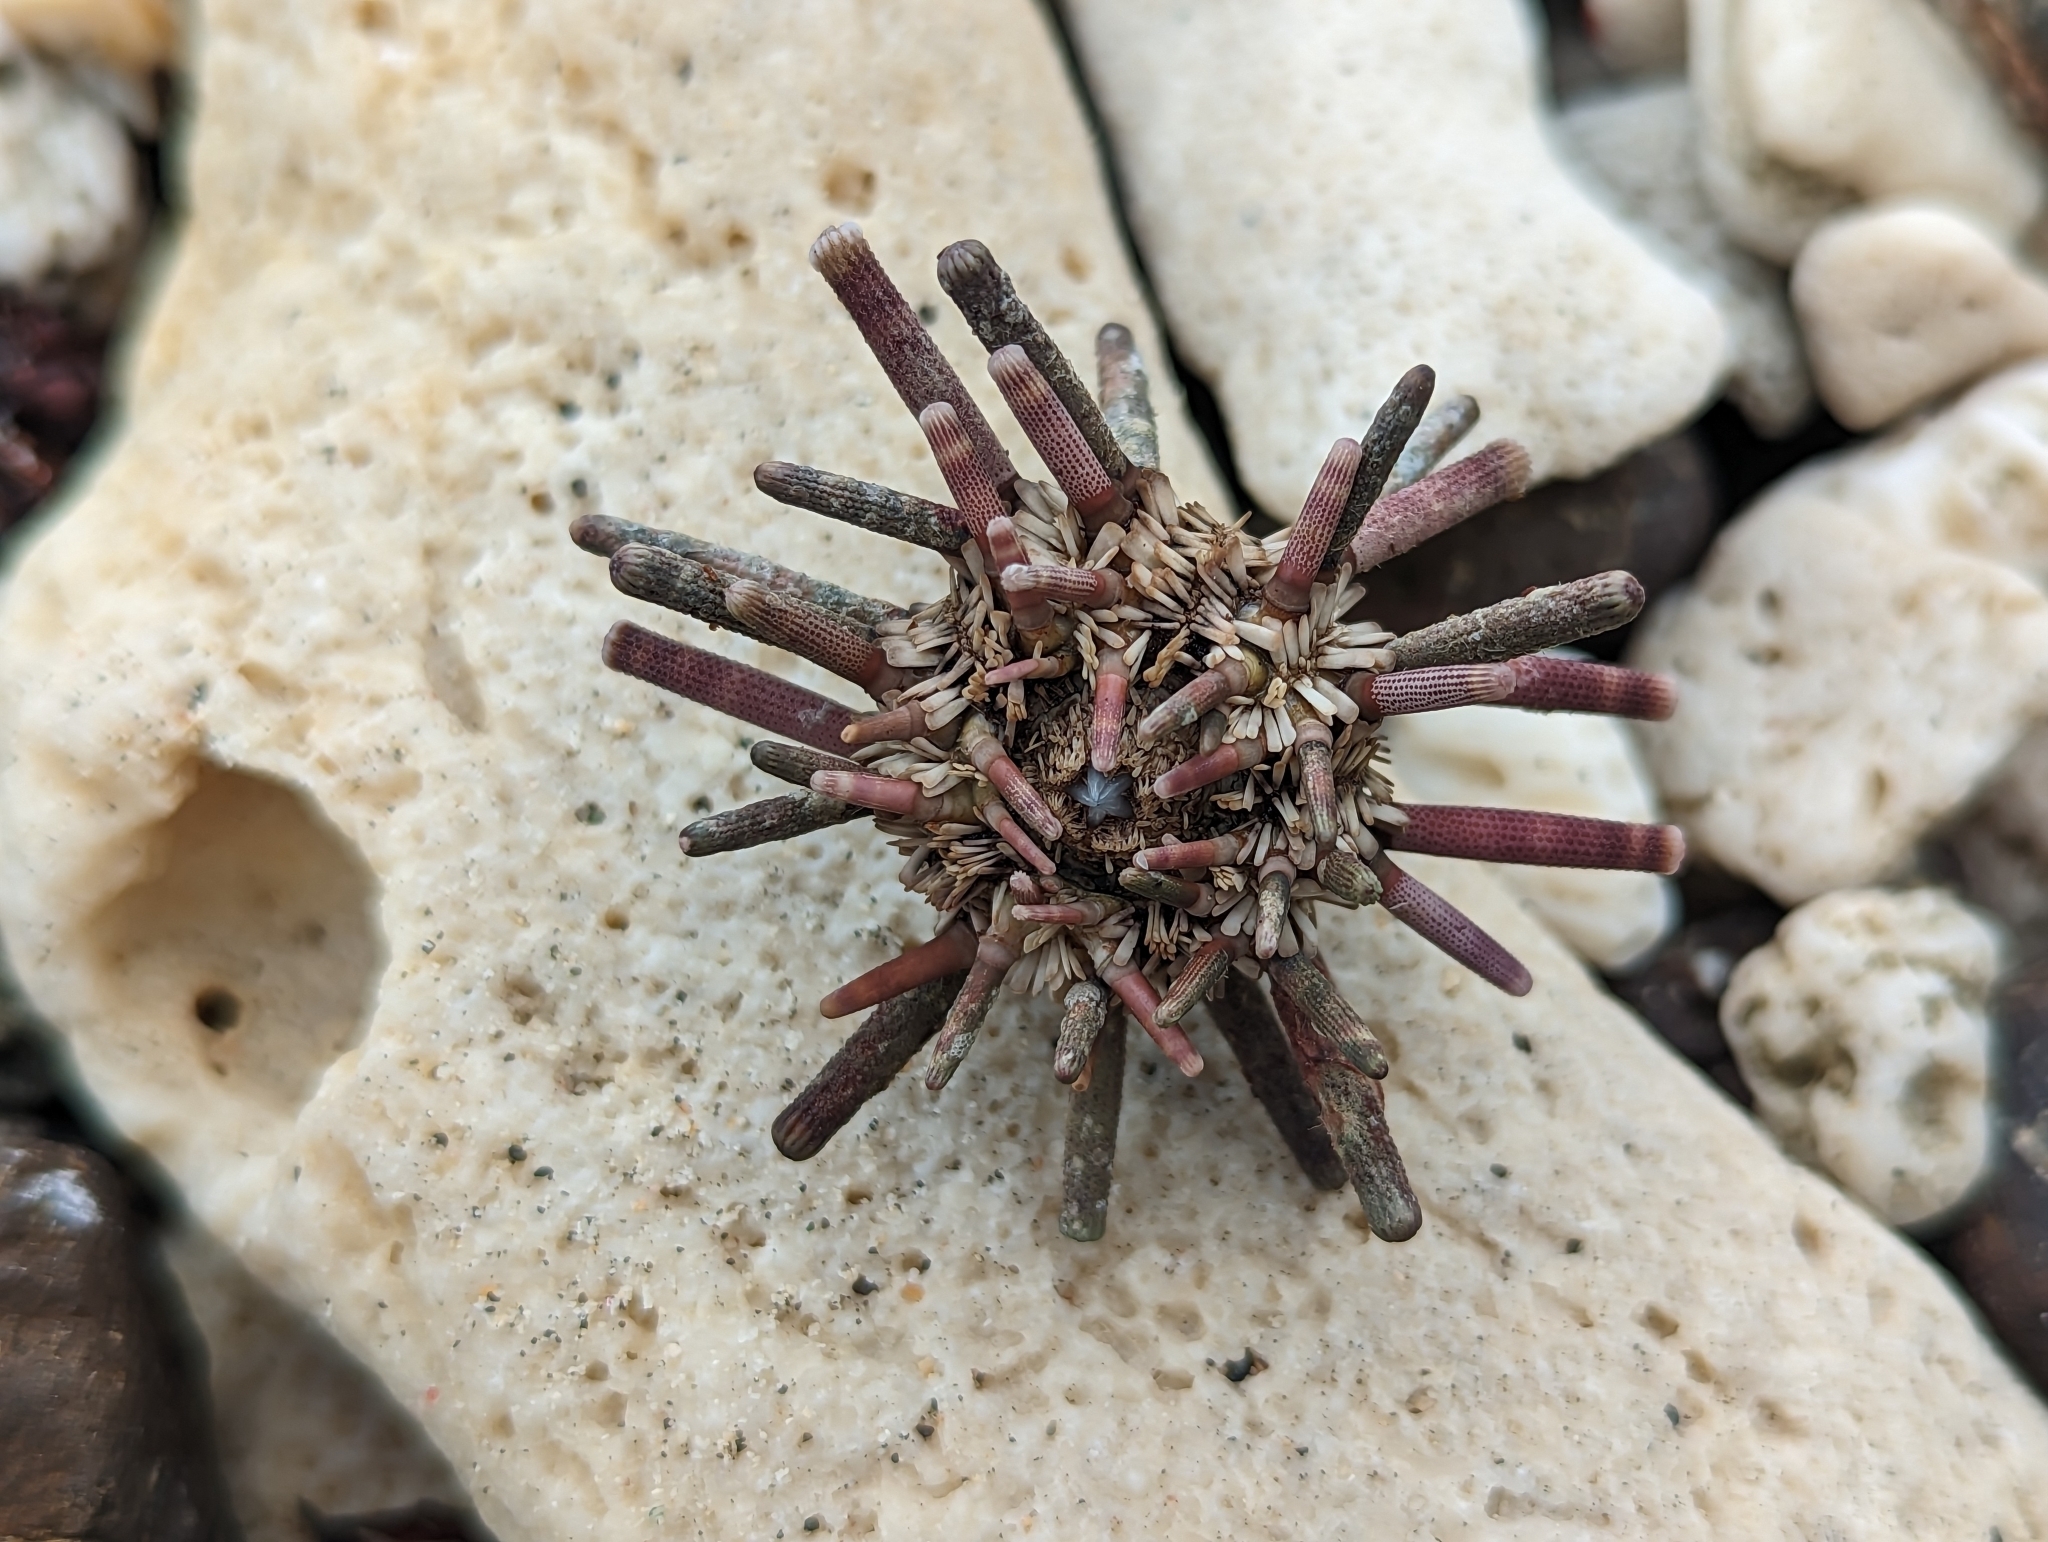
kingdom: Animalia
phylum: Echinodermata
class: Echinoidea
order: Cidaroida
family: Cidaridae
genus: Eucidaris
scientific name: Eucidaris tribuloides
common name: Slate pencil urchin
